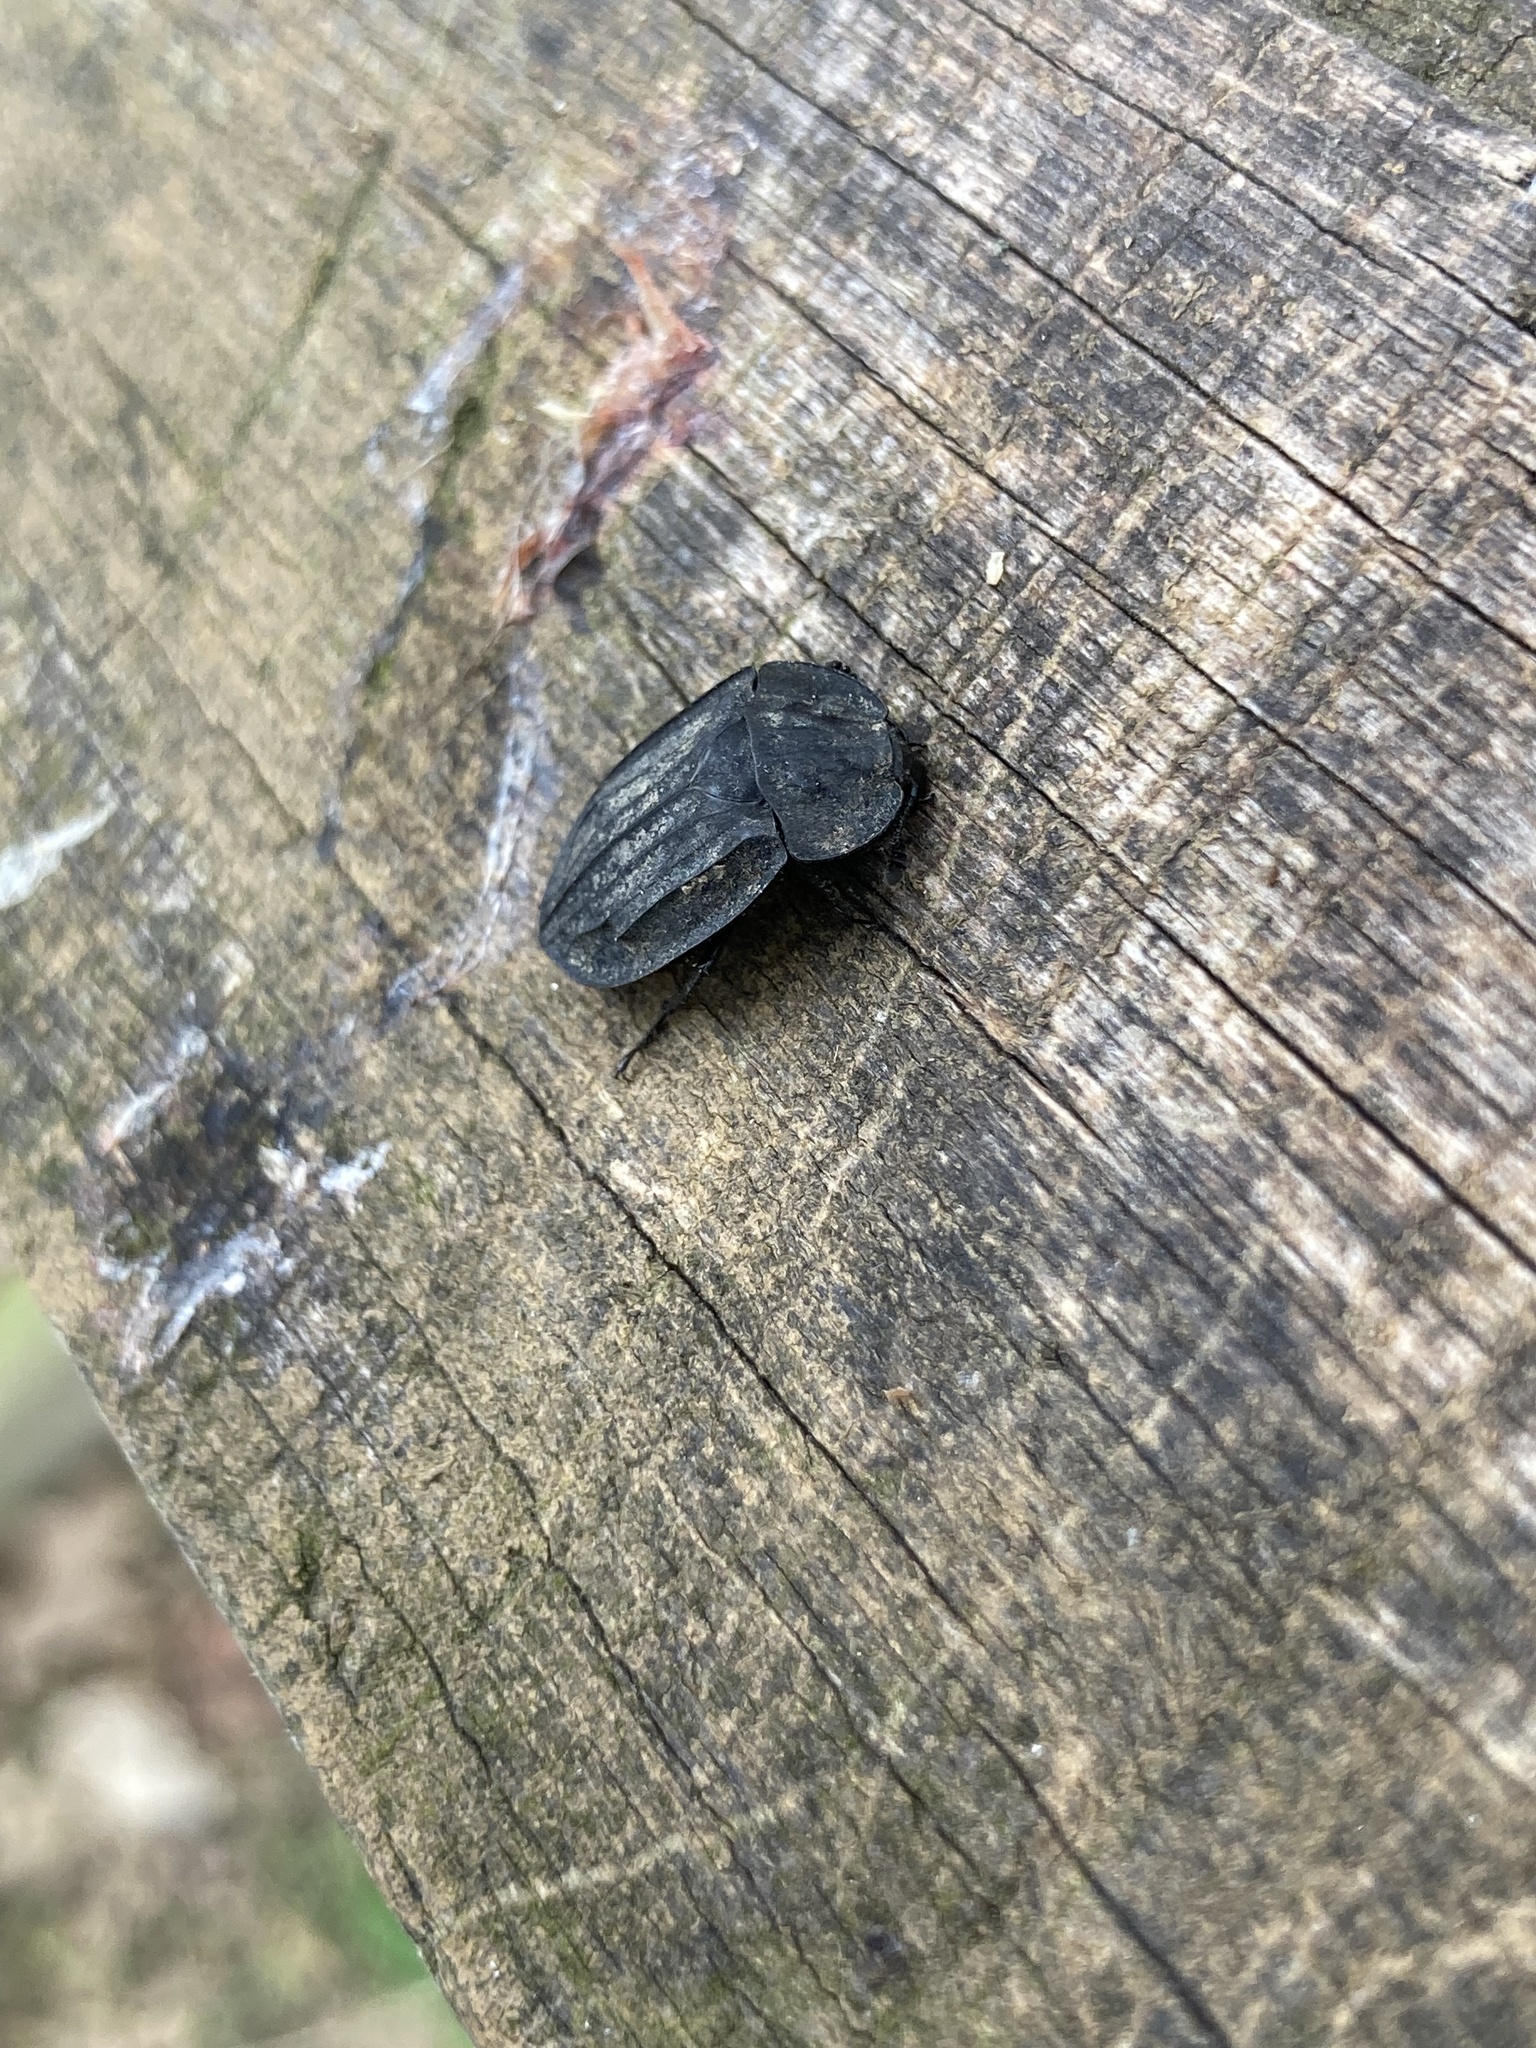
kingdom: Animalia
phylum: Arthropoda
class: Insecta
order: Coleoptera
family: Staphylinidae
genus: Oiceoptoma
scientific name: Oiceoptoma inaequale
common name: Ridged carrion beetle
